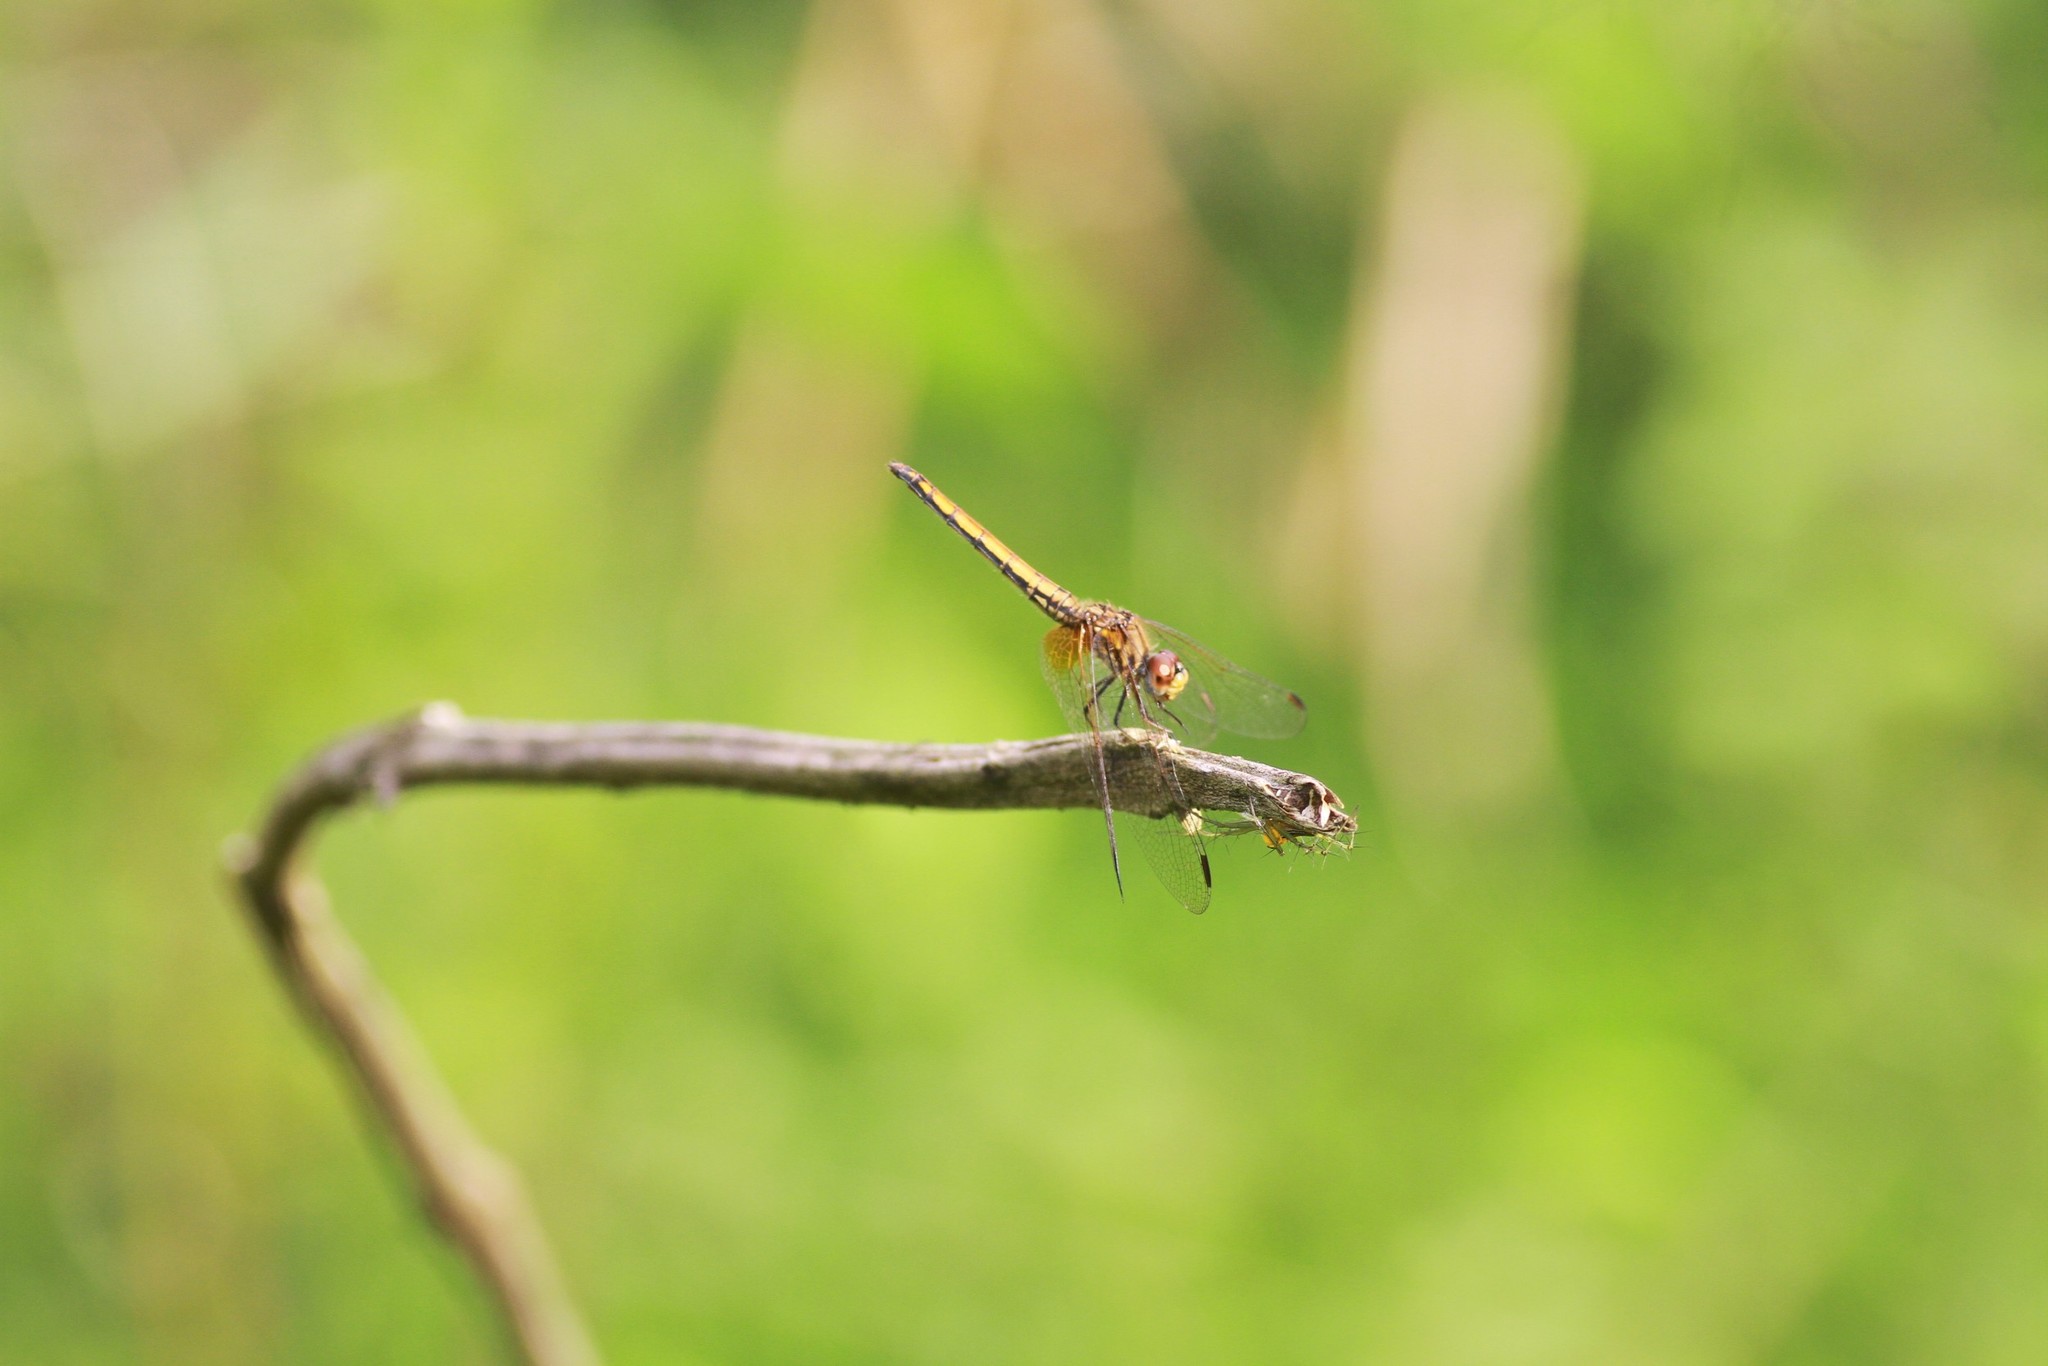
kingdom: Animalia
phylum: Arthropoda
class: Insecta
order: Odonata
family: Libellulidae
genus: Trithemis
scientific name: Trithemis aurora
